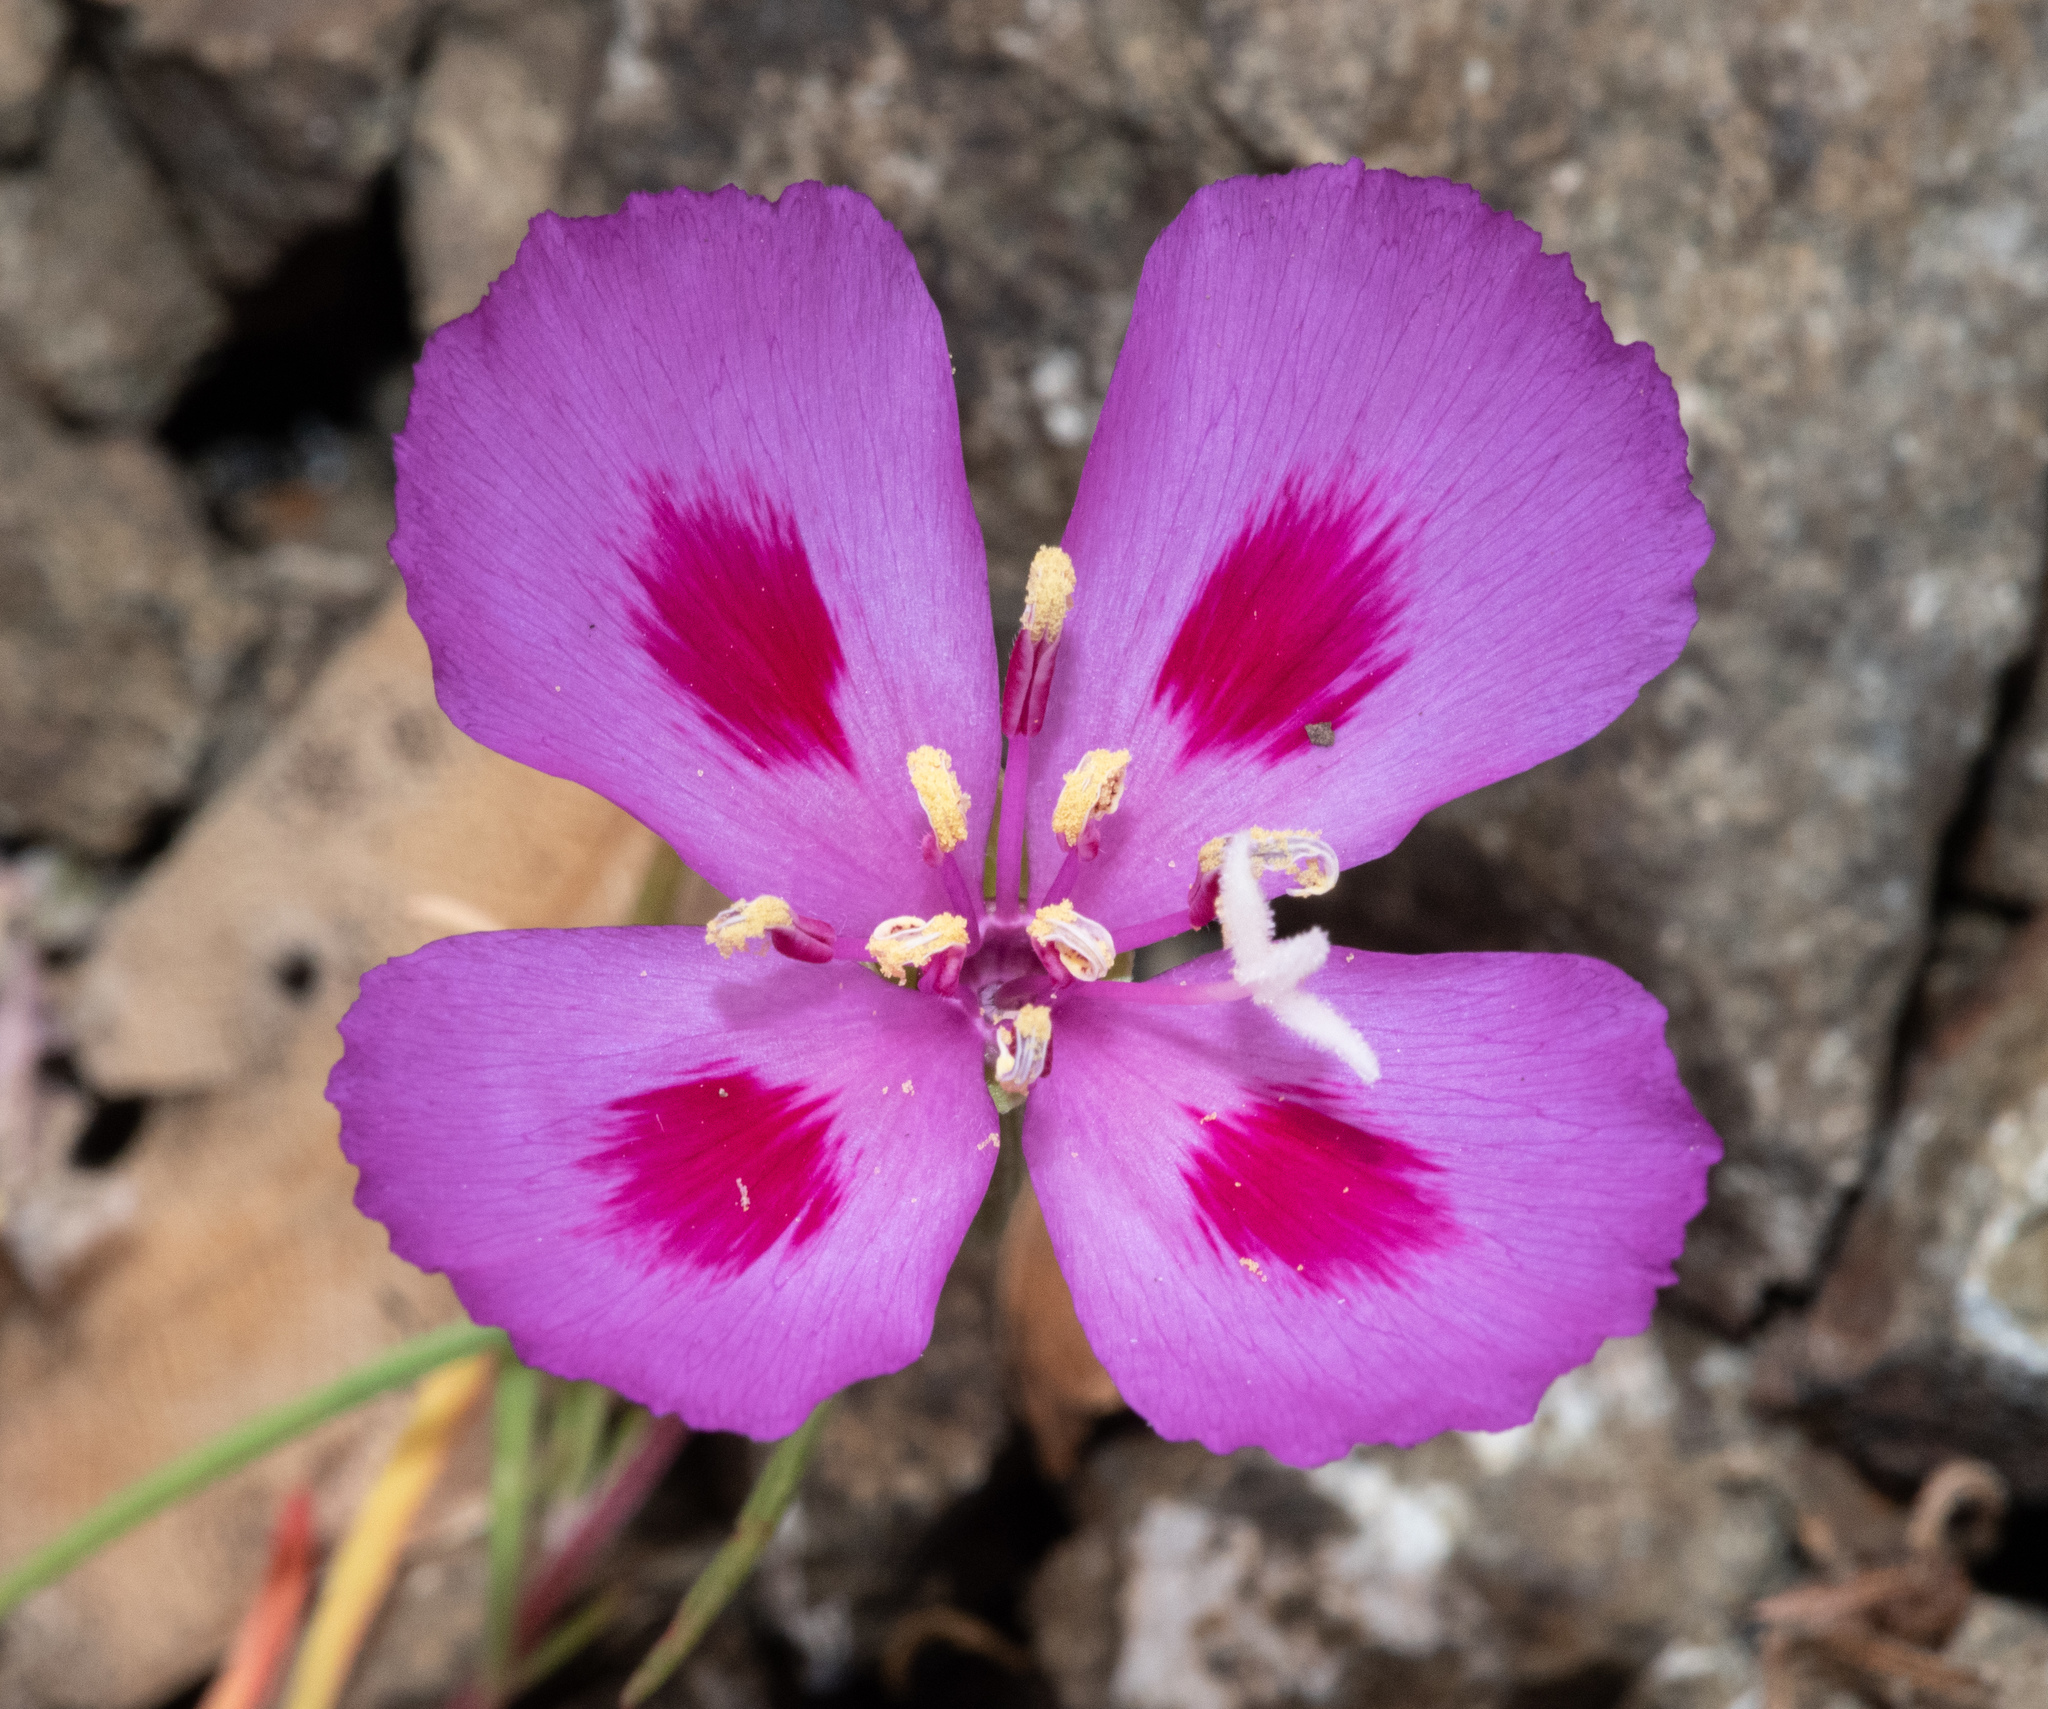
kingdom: Plantae
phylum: Tracheophyta
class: Magnoliopsida
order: Myrtales
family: Onagraceae
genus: Clarkia
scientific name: Clarkia amoena
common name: Godetia
